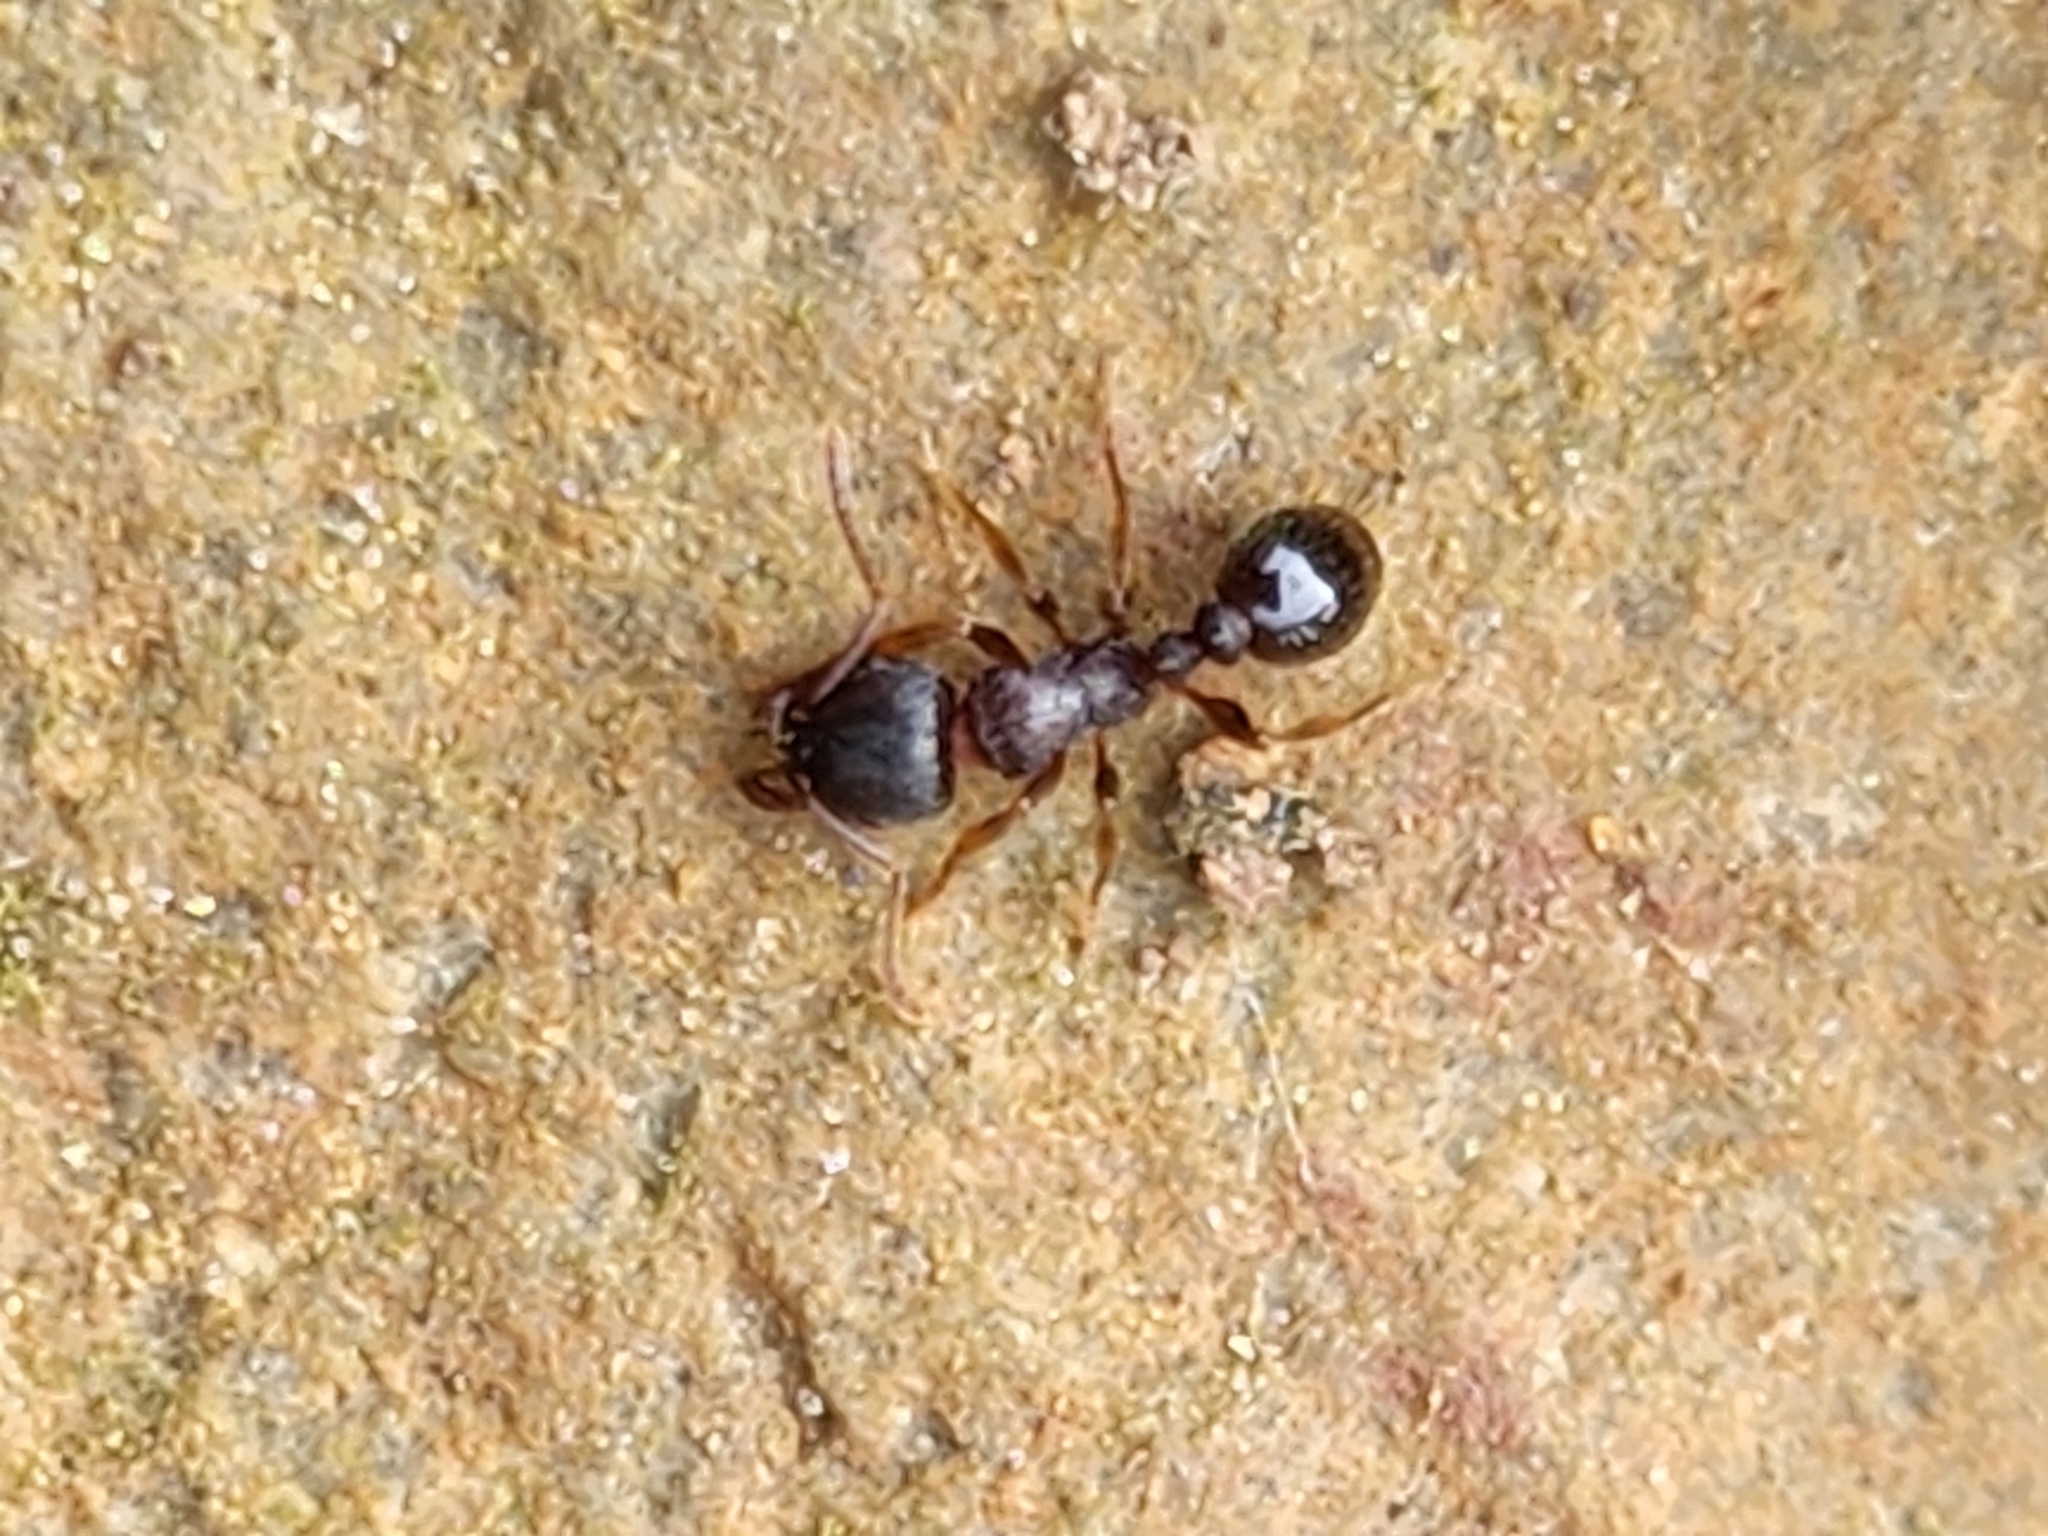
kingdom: Animalia
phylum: Arthropoda
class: Insecta
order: Hymenoptera
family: Formicidae
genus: Tetramorium
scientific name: Tetramorium immigrans
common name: Pavement ant
